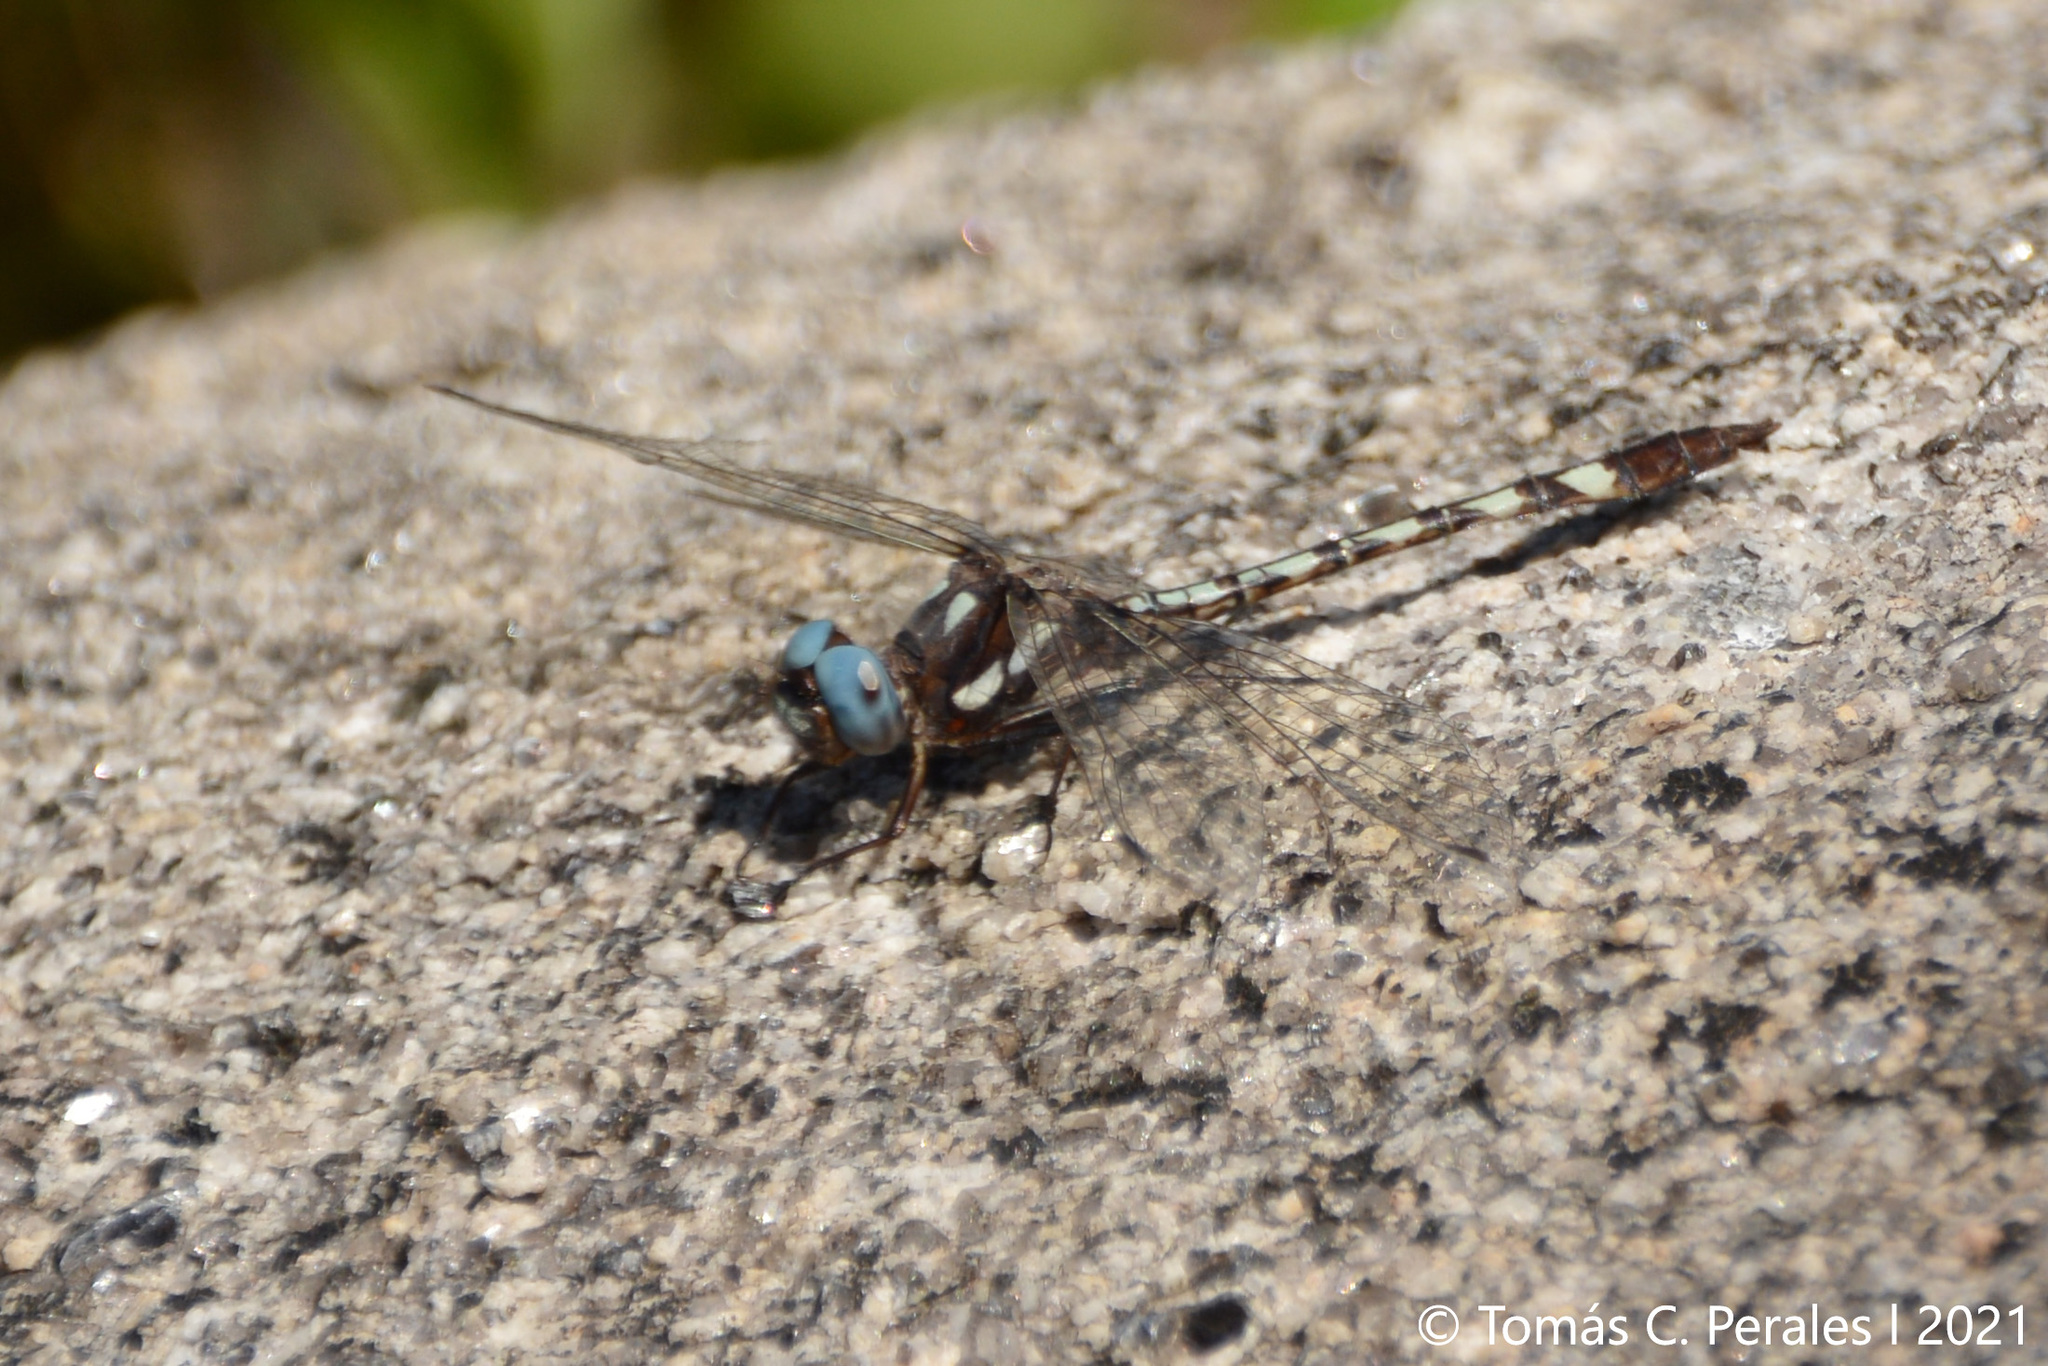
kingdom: Animalia
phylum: Arthropoda
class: Insecta
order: Odonata
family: Libellulidae
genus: Macrothemis
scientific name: Macrothemis imitans
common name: Ivory-striped sylph
